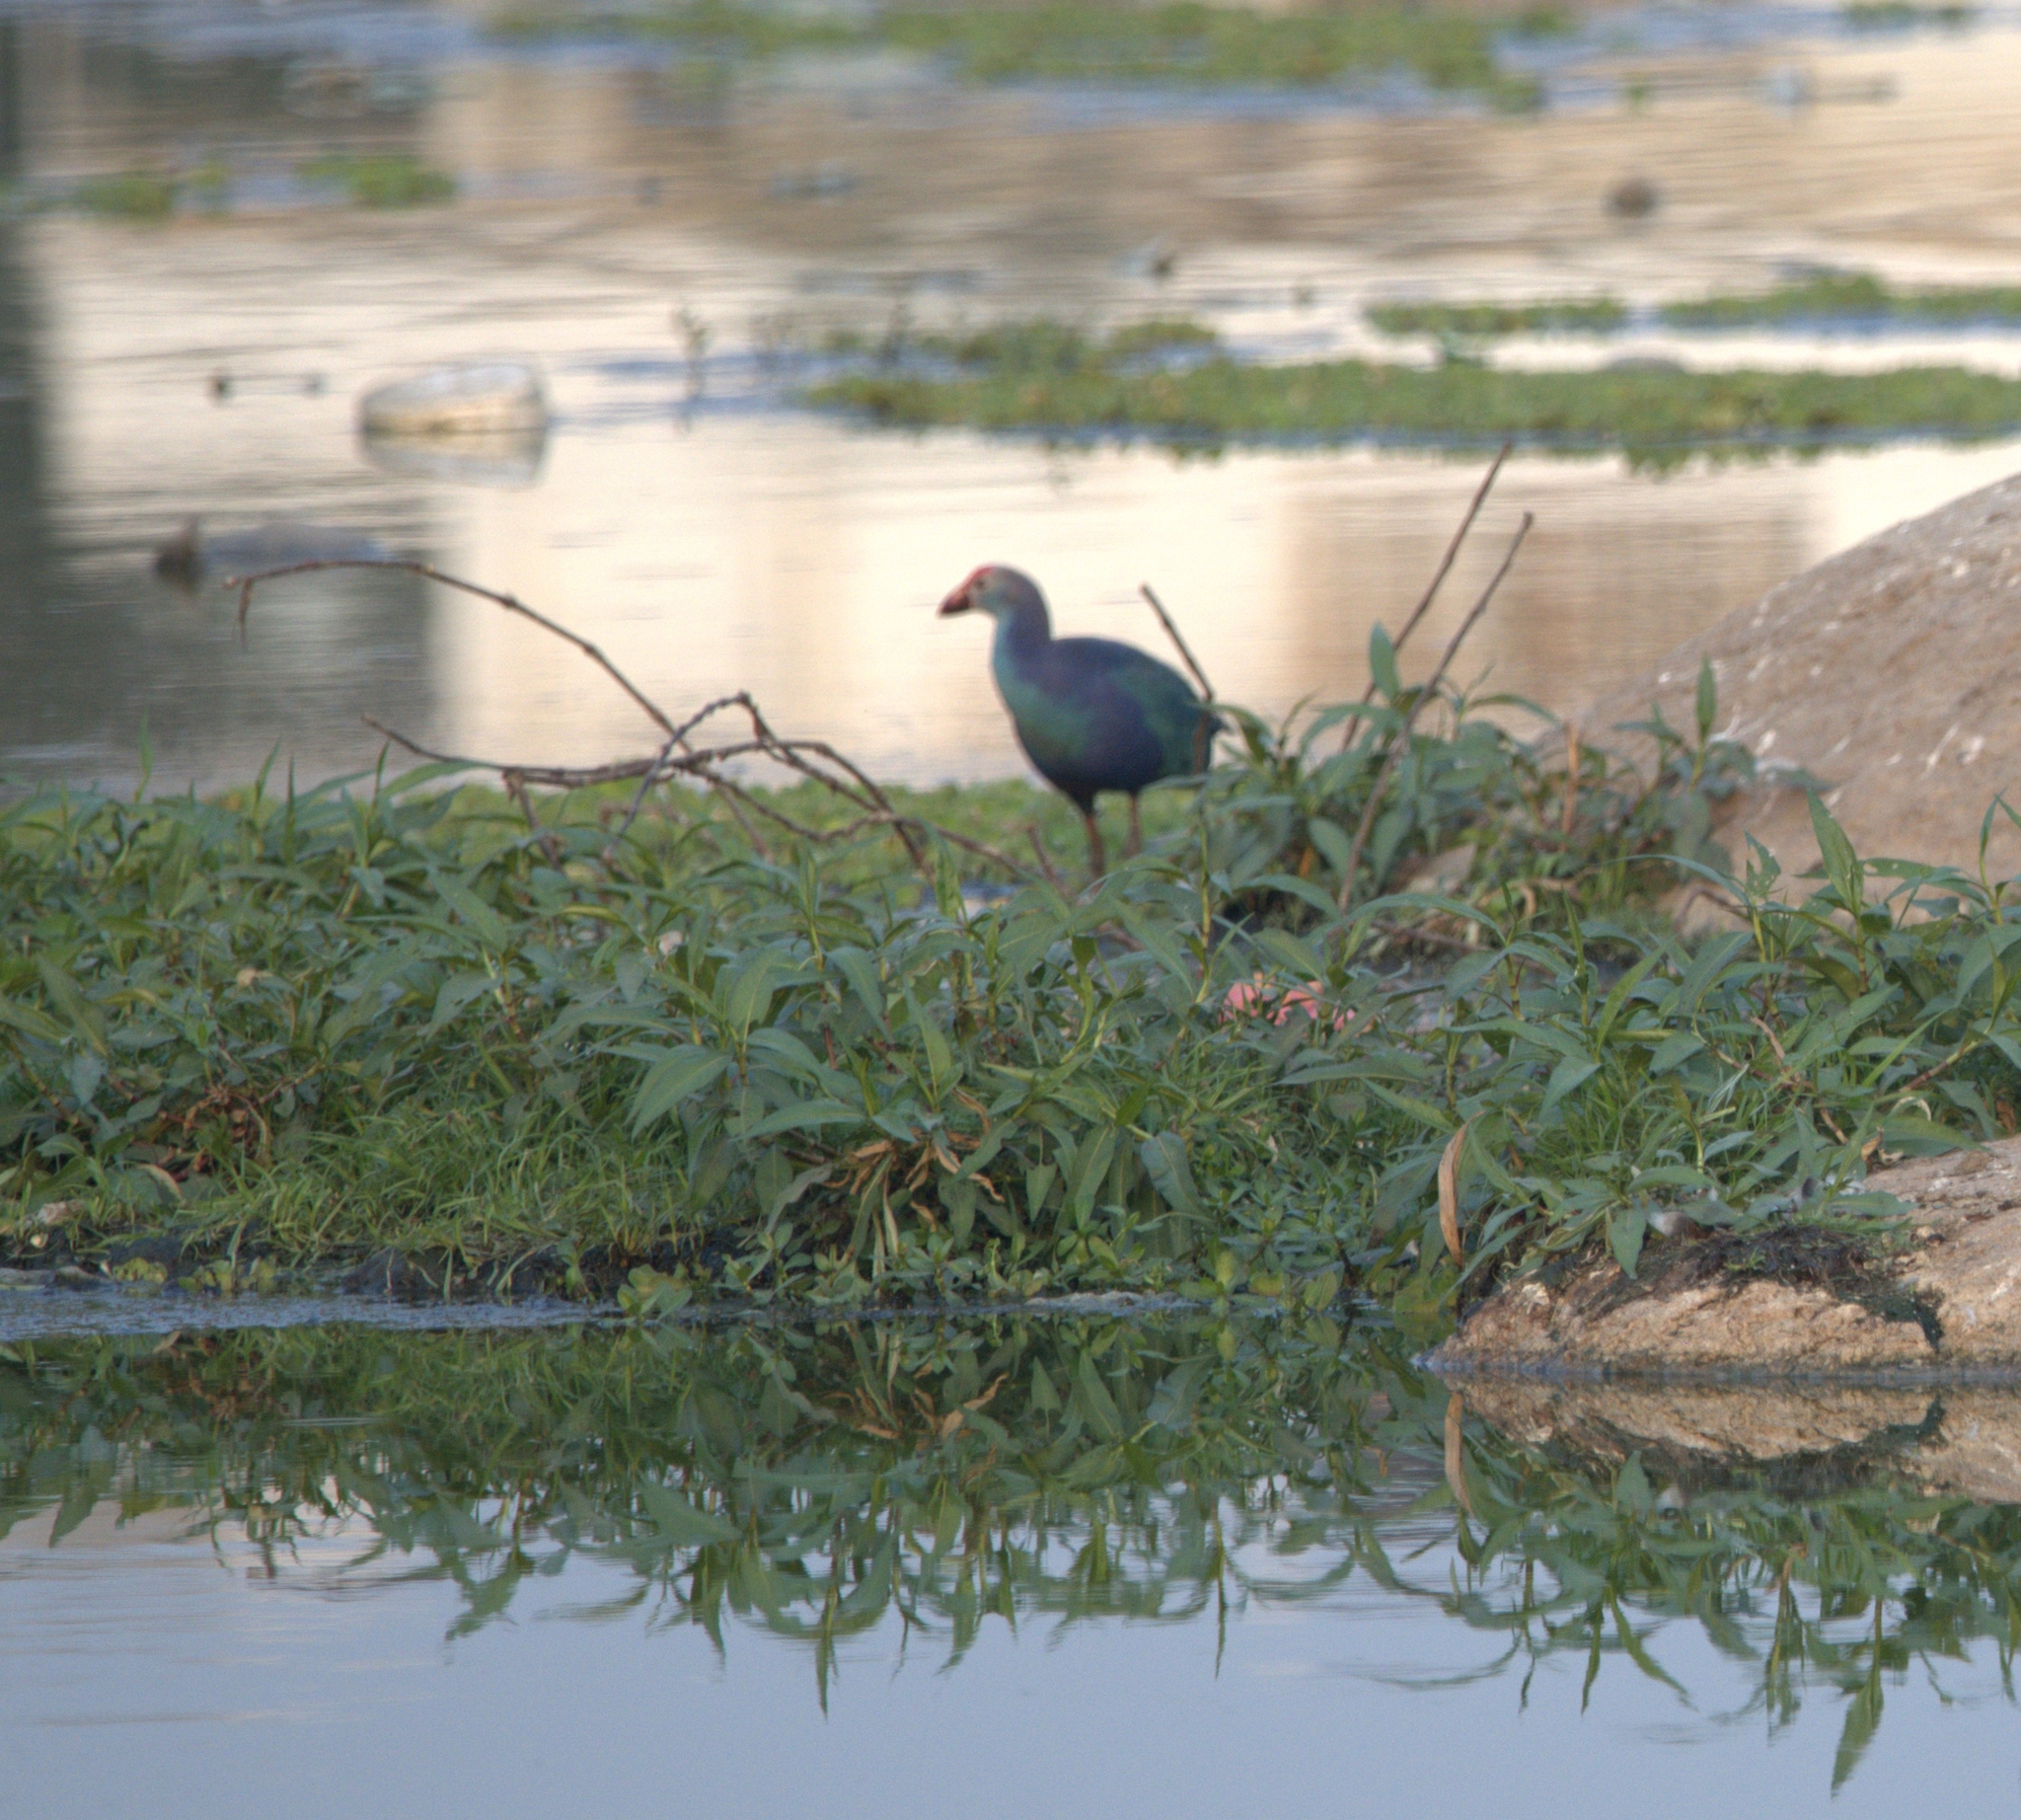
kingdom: Animalia
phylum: Chordata
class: Aves
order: Gruiformes
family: Rallidae
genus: Porphyrio
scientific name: Porphyrio porphyrio
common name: Purple swamphen
